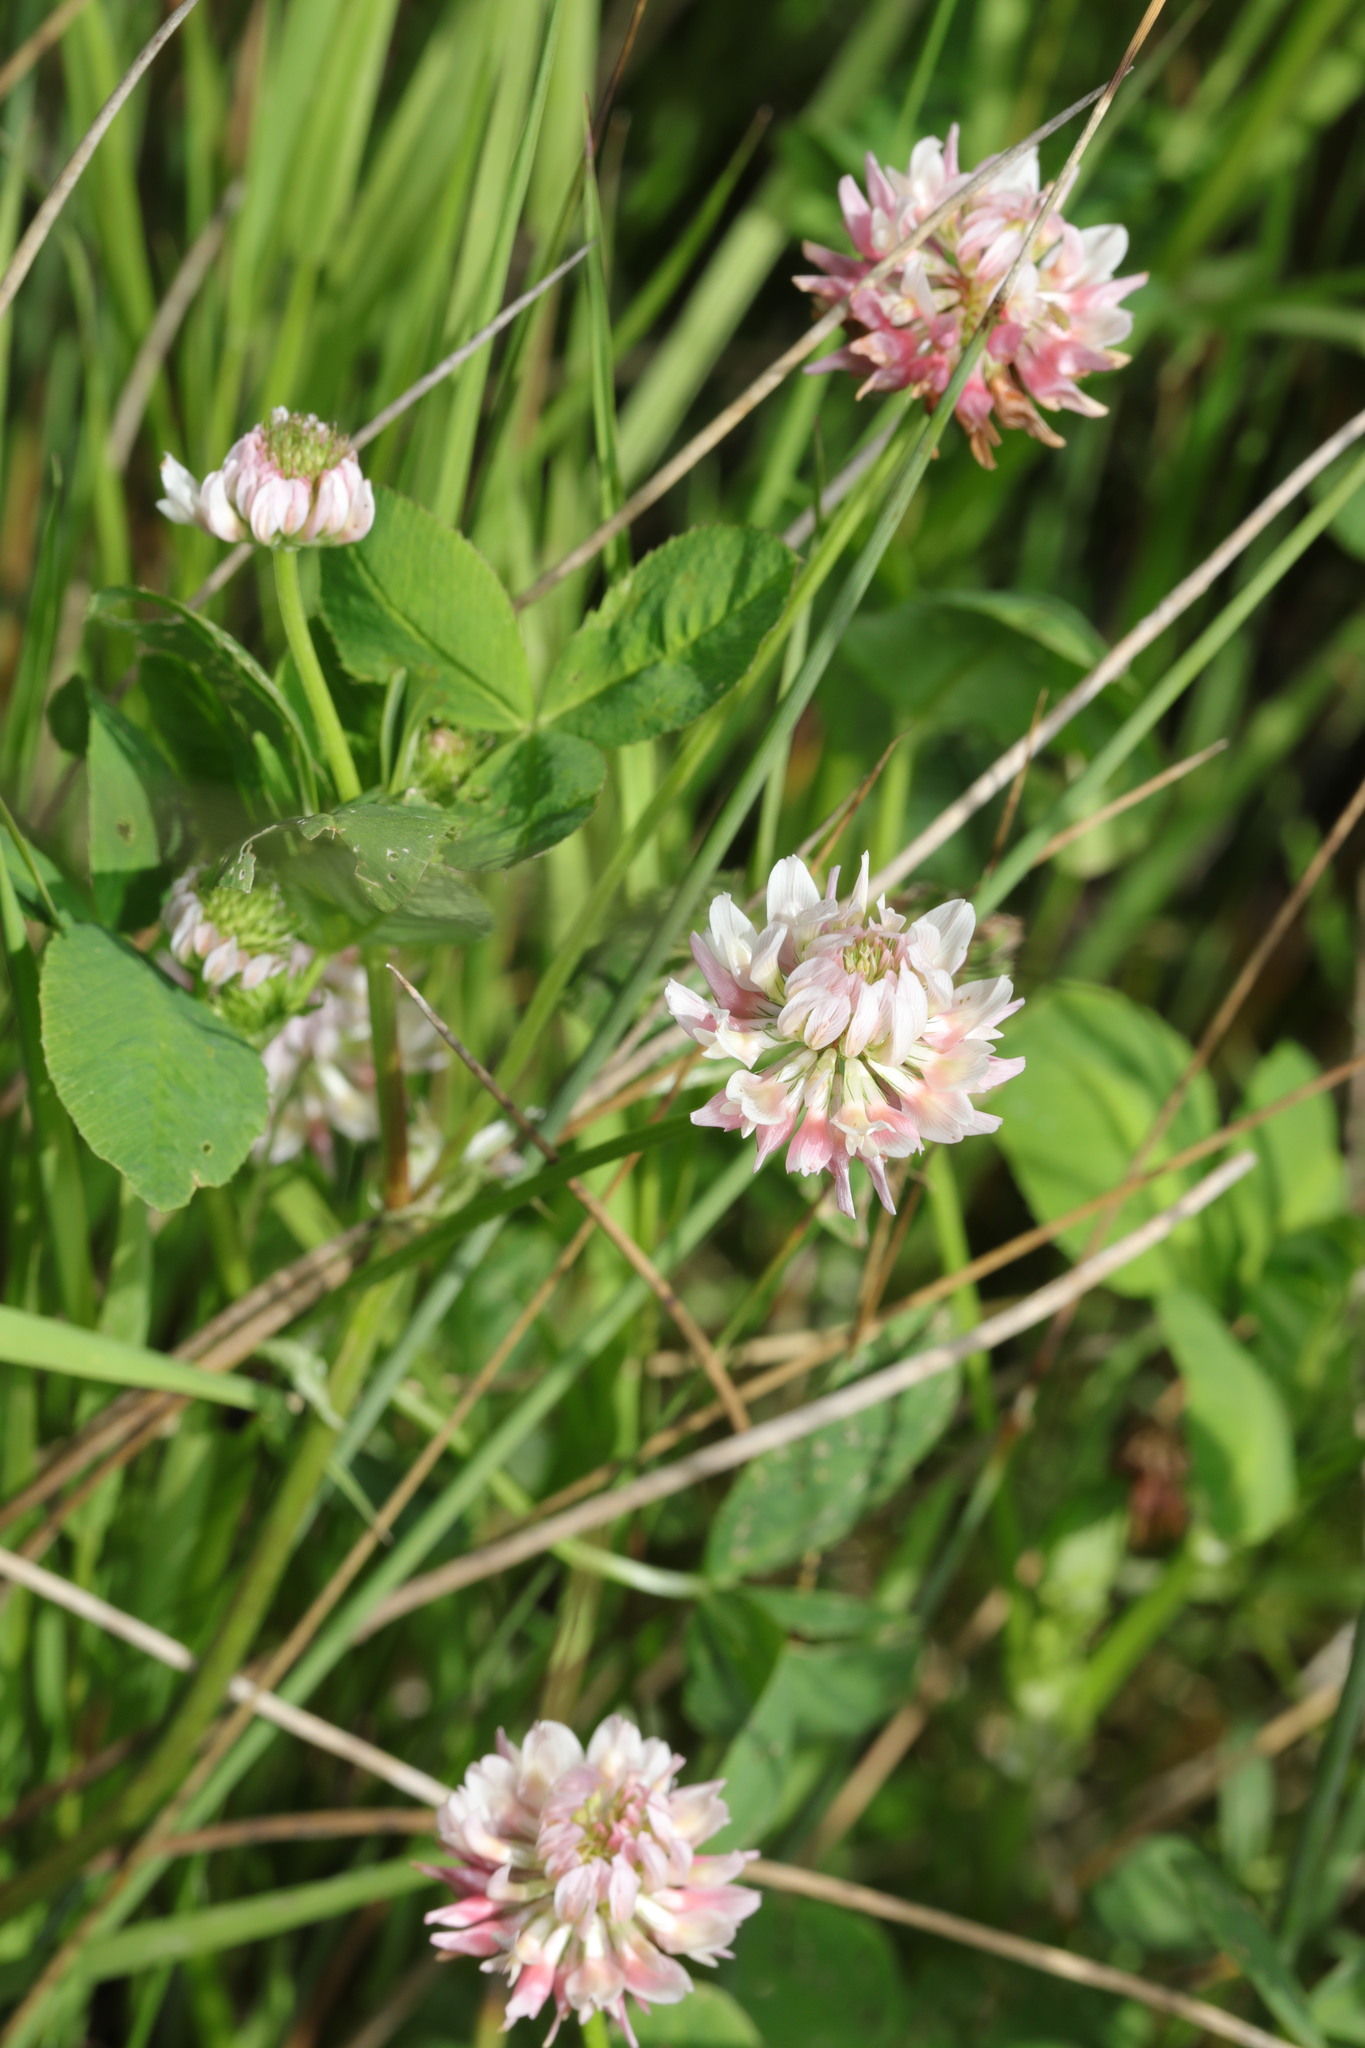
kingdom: Plantae
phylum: Tracheophyta
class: Magnoliopsida
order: Fabales
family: Fabaceae
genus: Trifolium
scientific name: Trifolium hybridum
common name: Alsike clover
